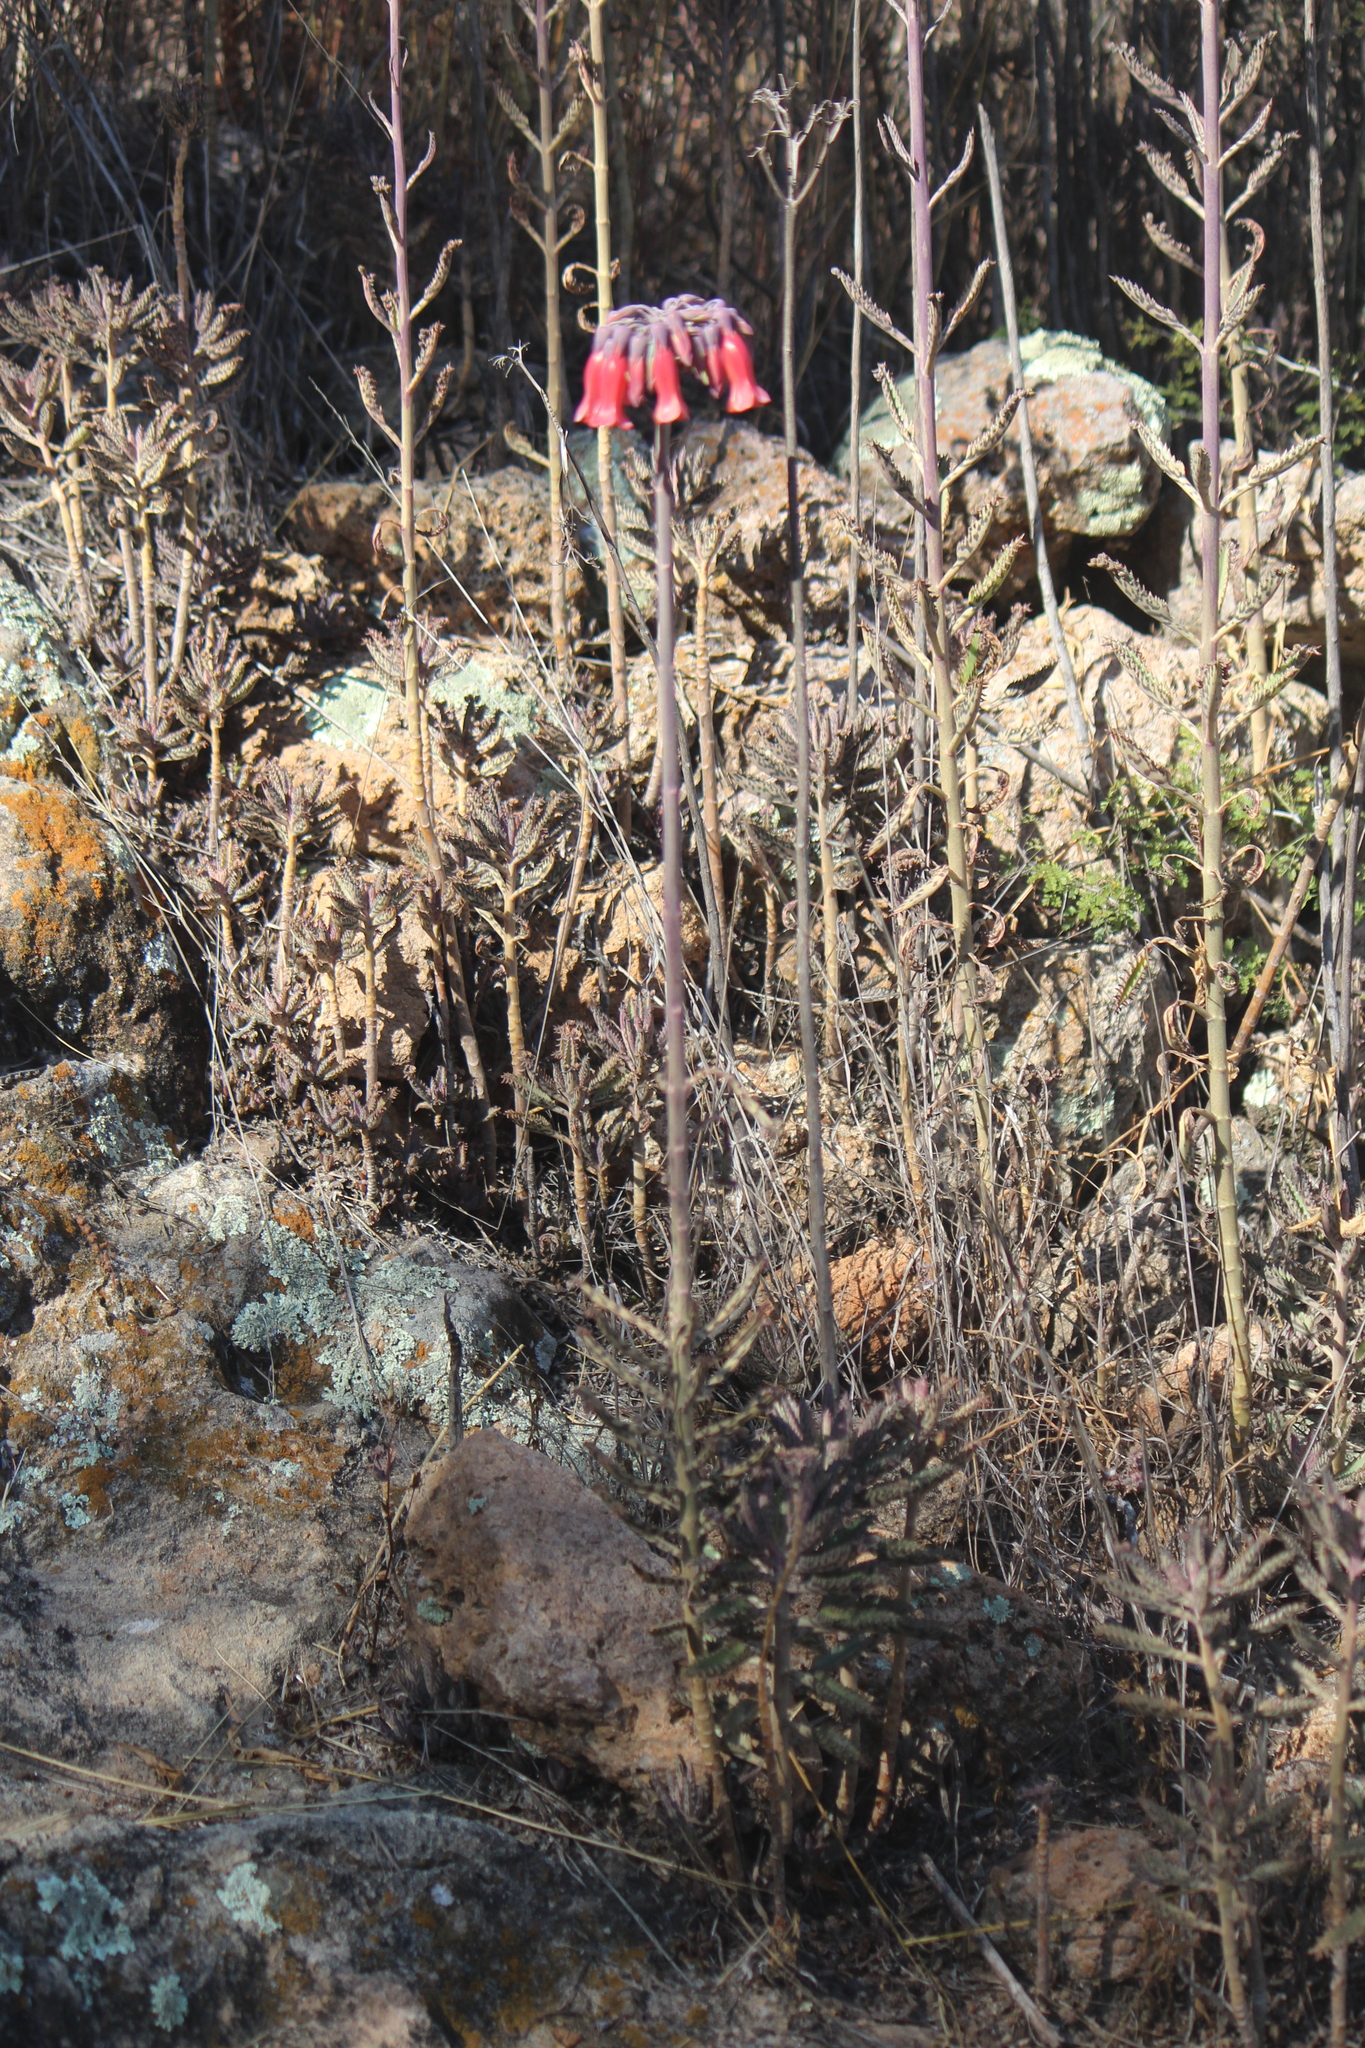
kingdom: Plantae
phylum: Tracheophyta
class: Magnoliopsida
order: Saxifragales
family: Crassulaceae
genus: Kalanchoe
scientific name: Kalanchoe delagoensis
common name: Chandelier plant
